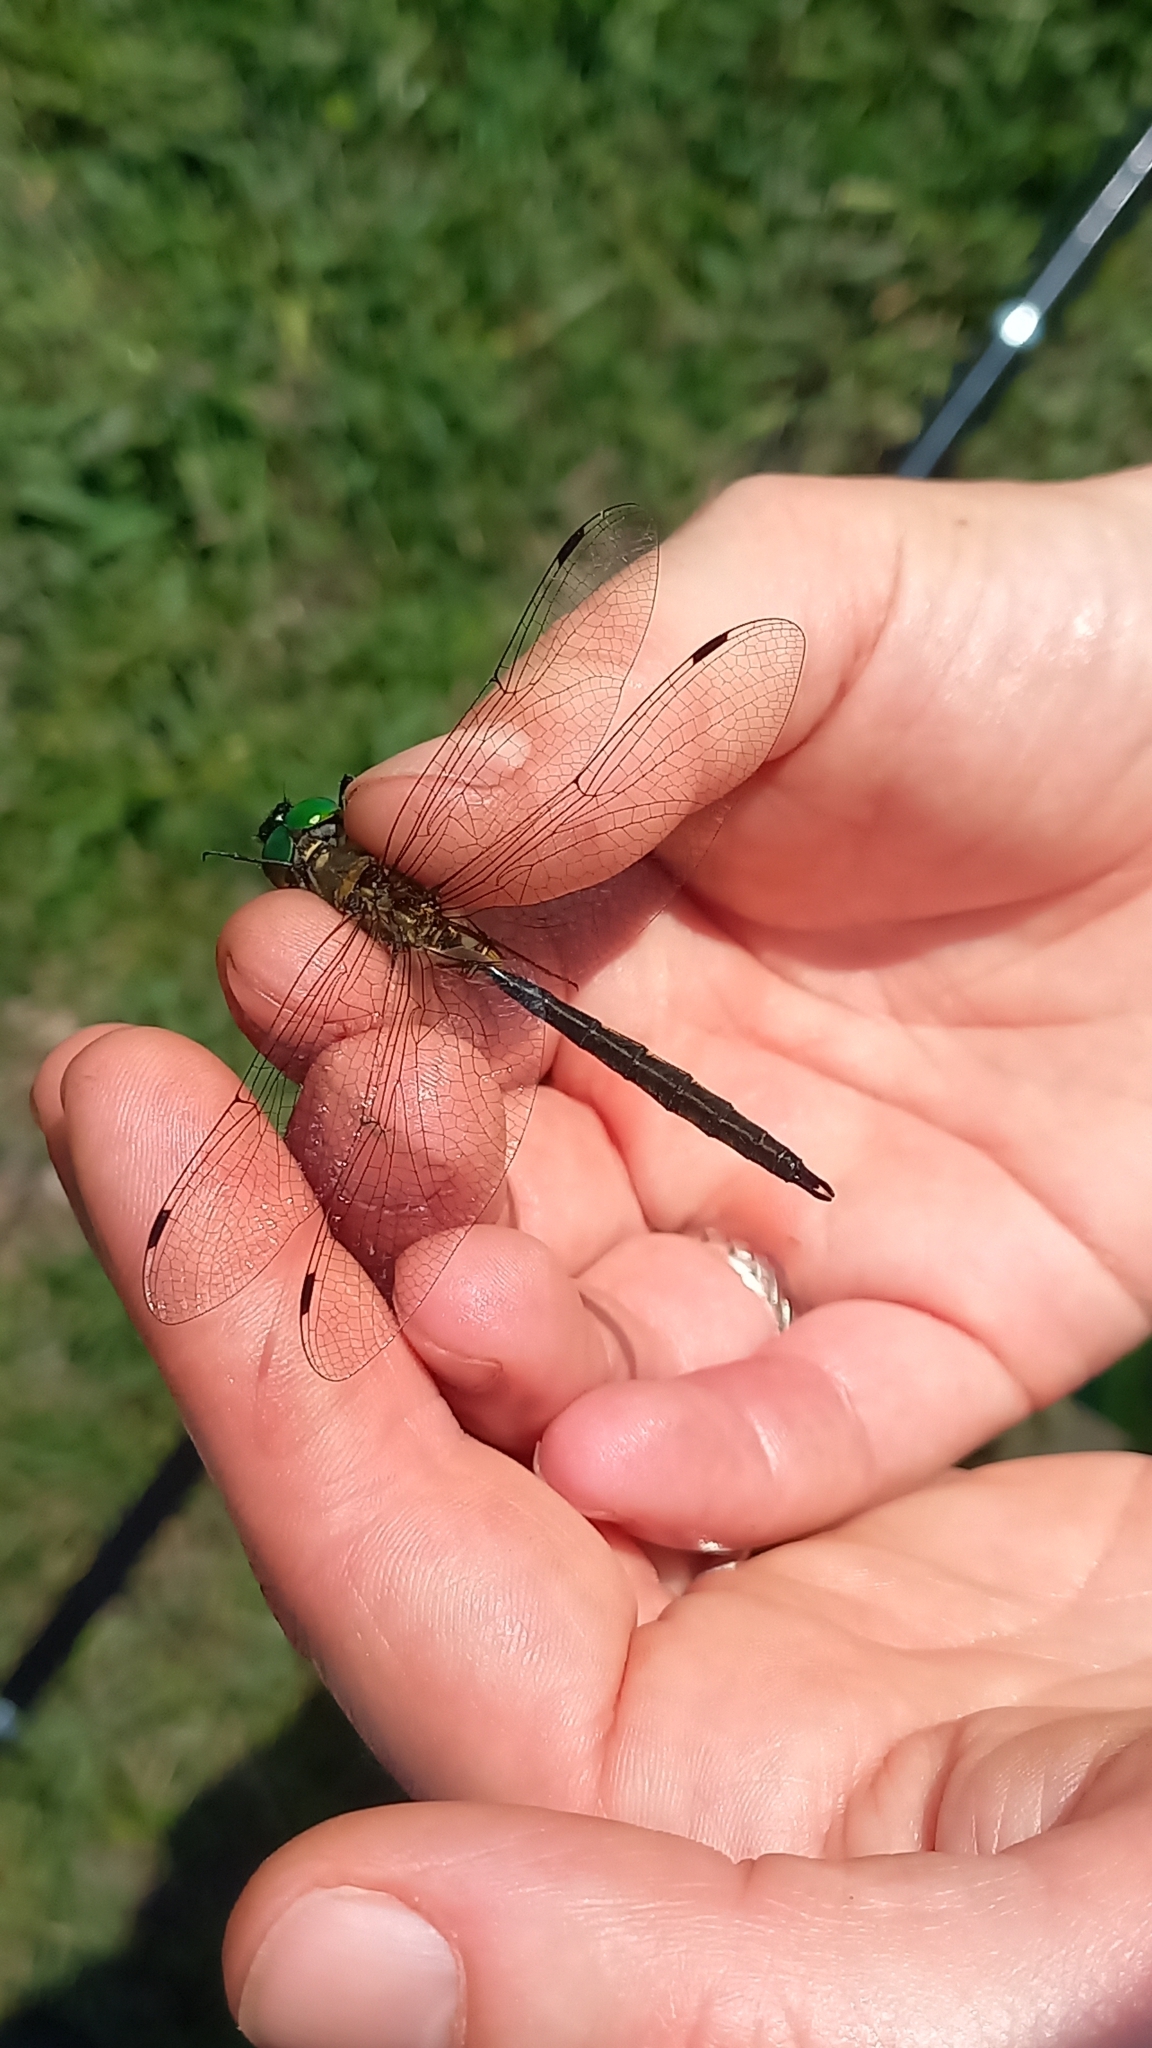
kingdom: Animalia
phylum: Arthropoda
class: Insecta
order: Odonata
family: Corduliidae
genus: Somatochlora
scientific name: Somatochlora flavomaculata
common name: Yellow-spotted emerald
